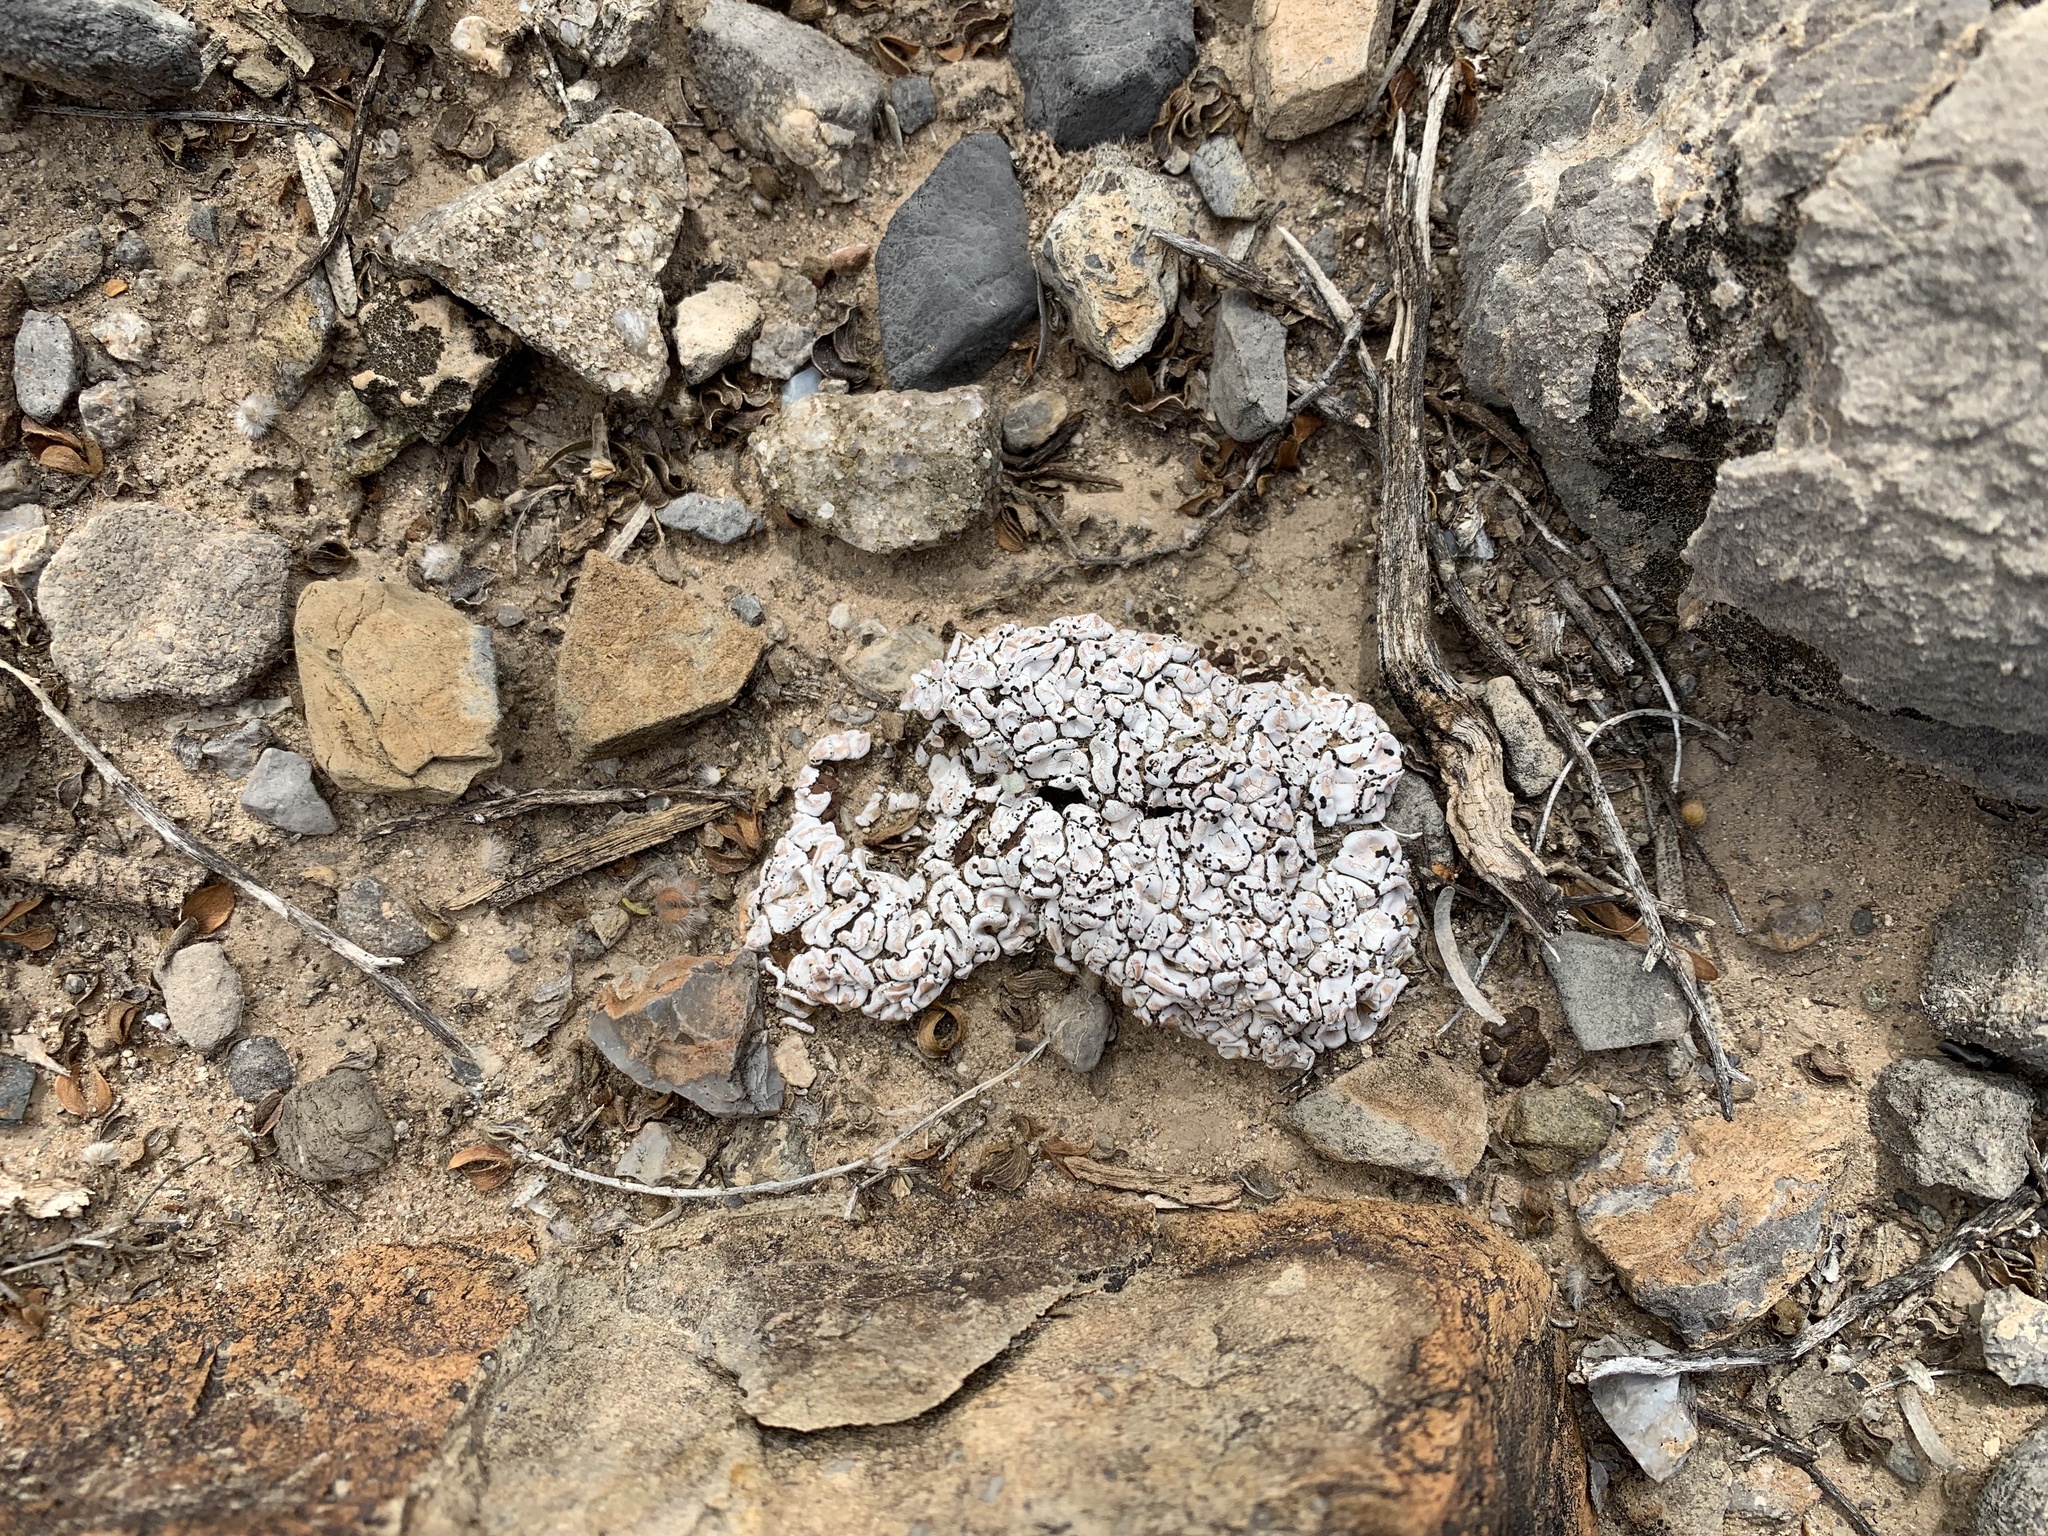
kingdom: Fungi
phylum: Ascomycota
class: Lecanoromycetes
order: Lecanorales
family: Psoraceae
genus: Psora
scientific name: Psora crenata
